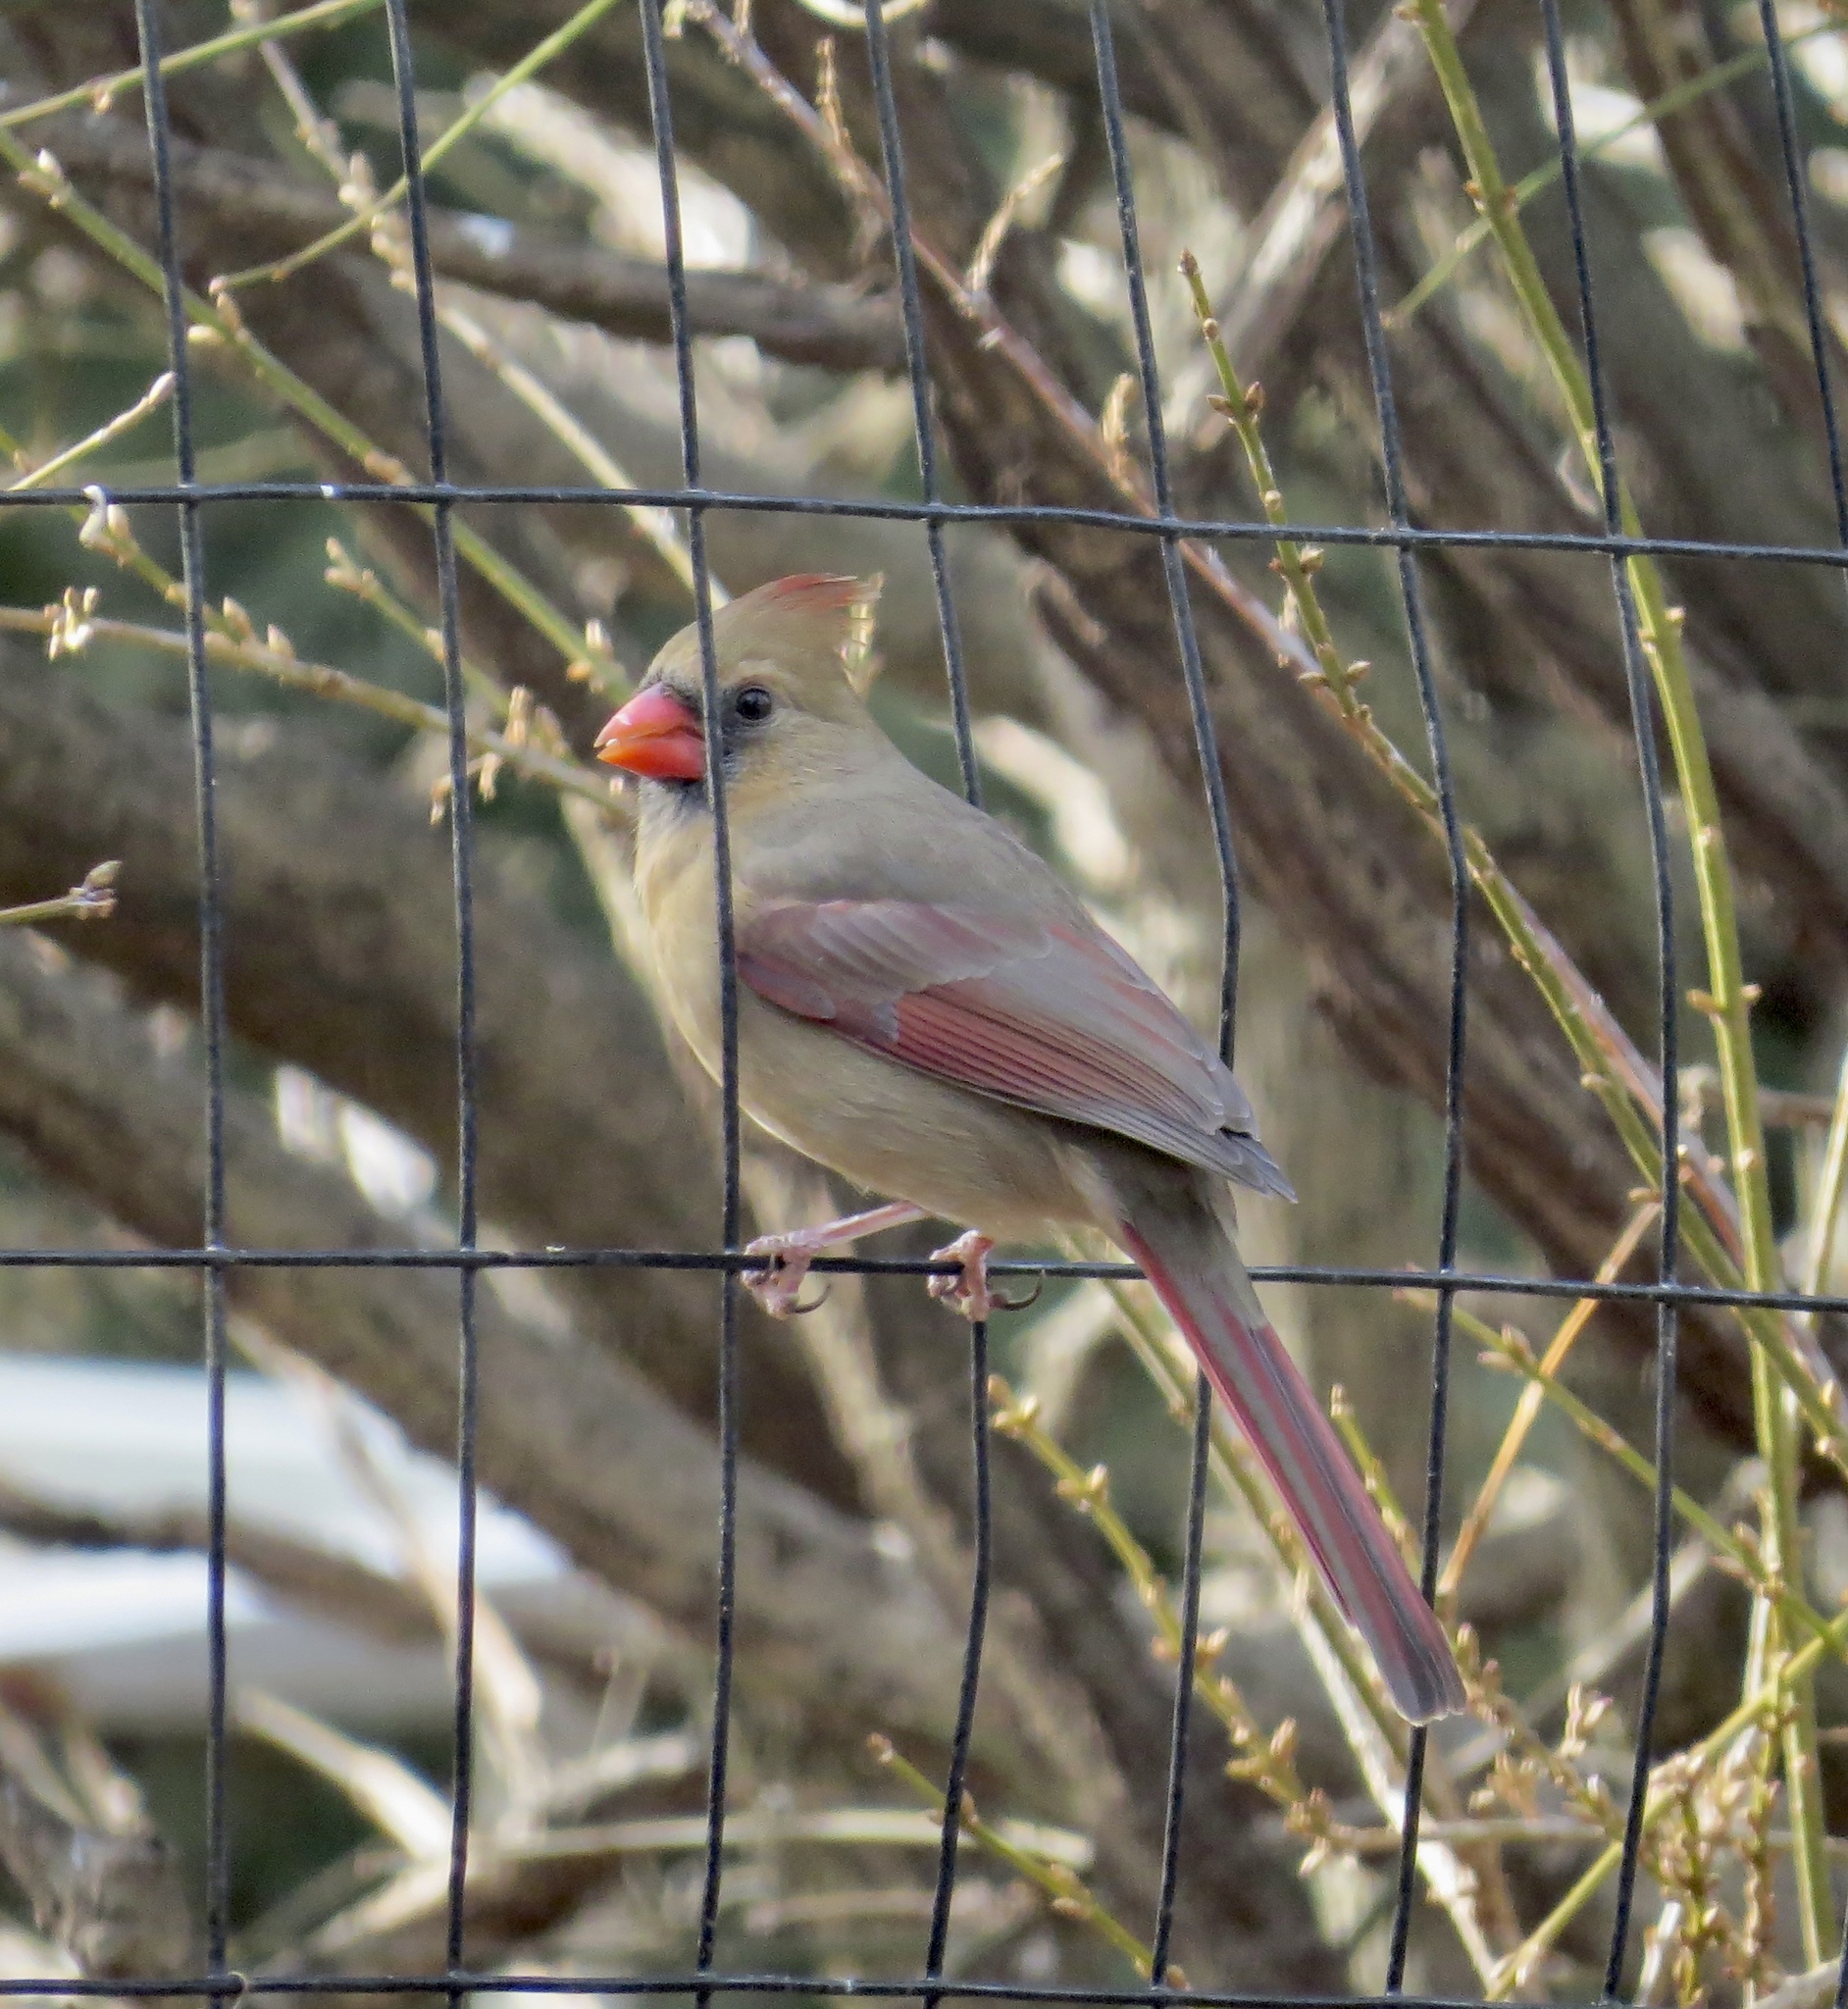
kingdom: Animalia
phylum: Chordata
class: Aves
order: Passeriformes
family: Cardinalidae
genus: Cardinalis
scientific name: Cardinalis cardinalis
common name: Northern cardinal
